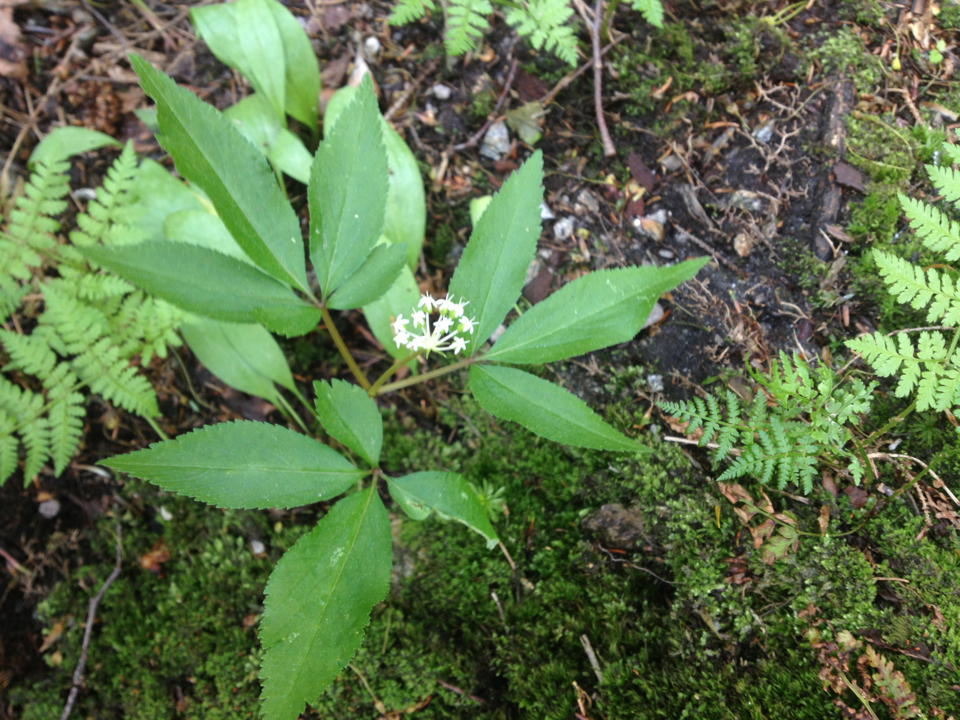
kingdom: Plantae
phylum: Tracheophyta
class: Magnoliopsida
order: Apiales
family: Araliaceae
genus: Panax
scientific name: Panax trifolius
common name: Dwarf ginseng
